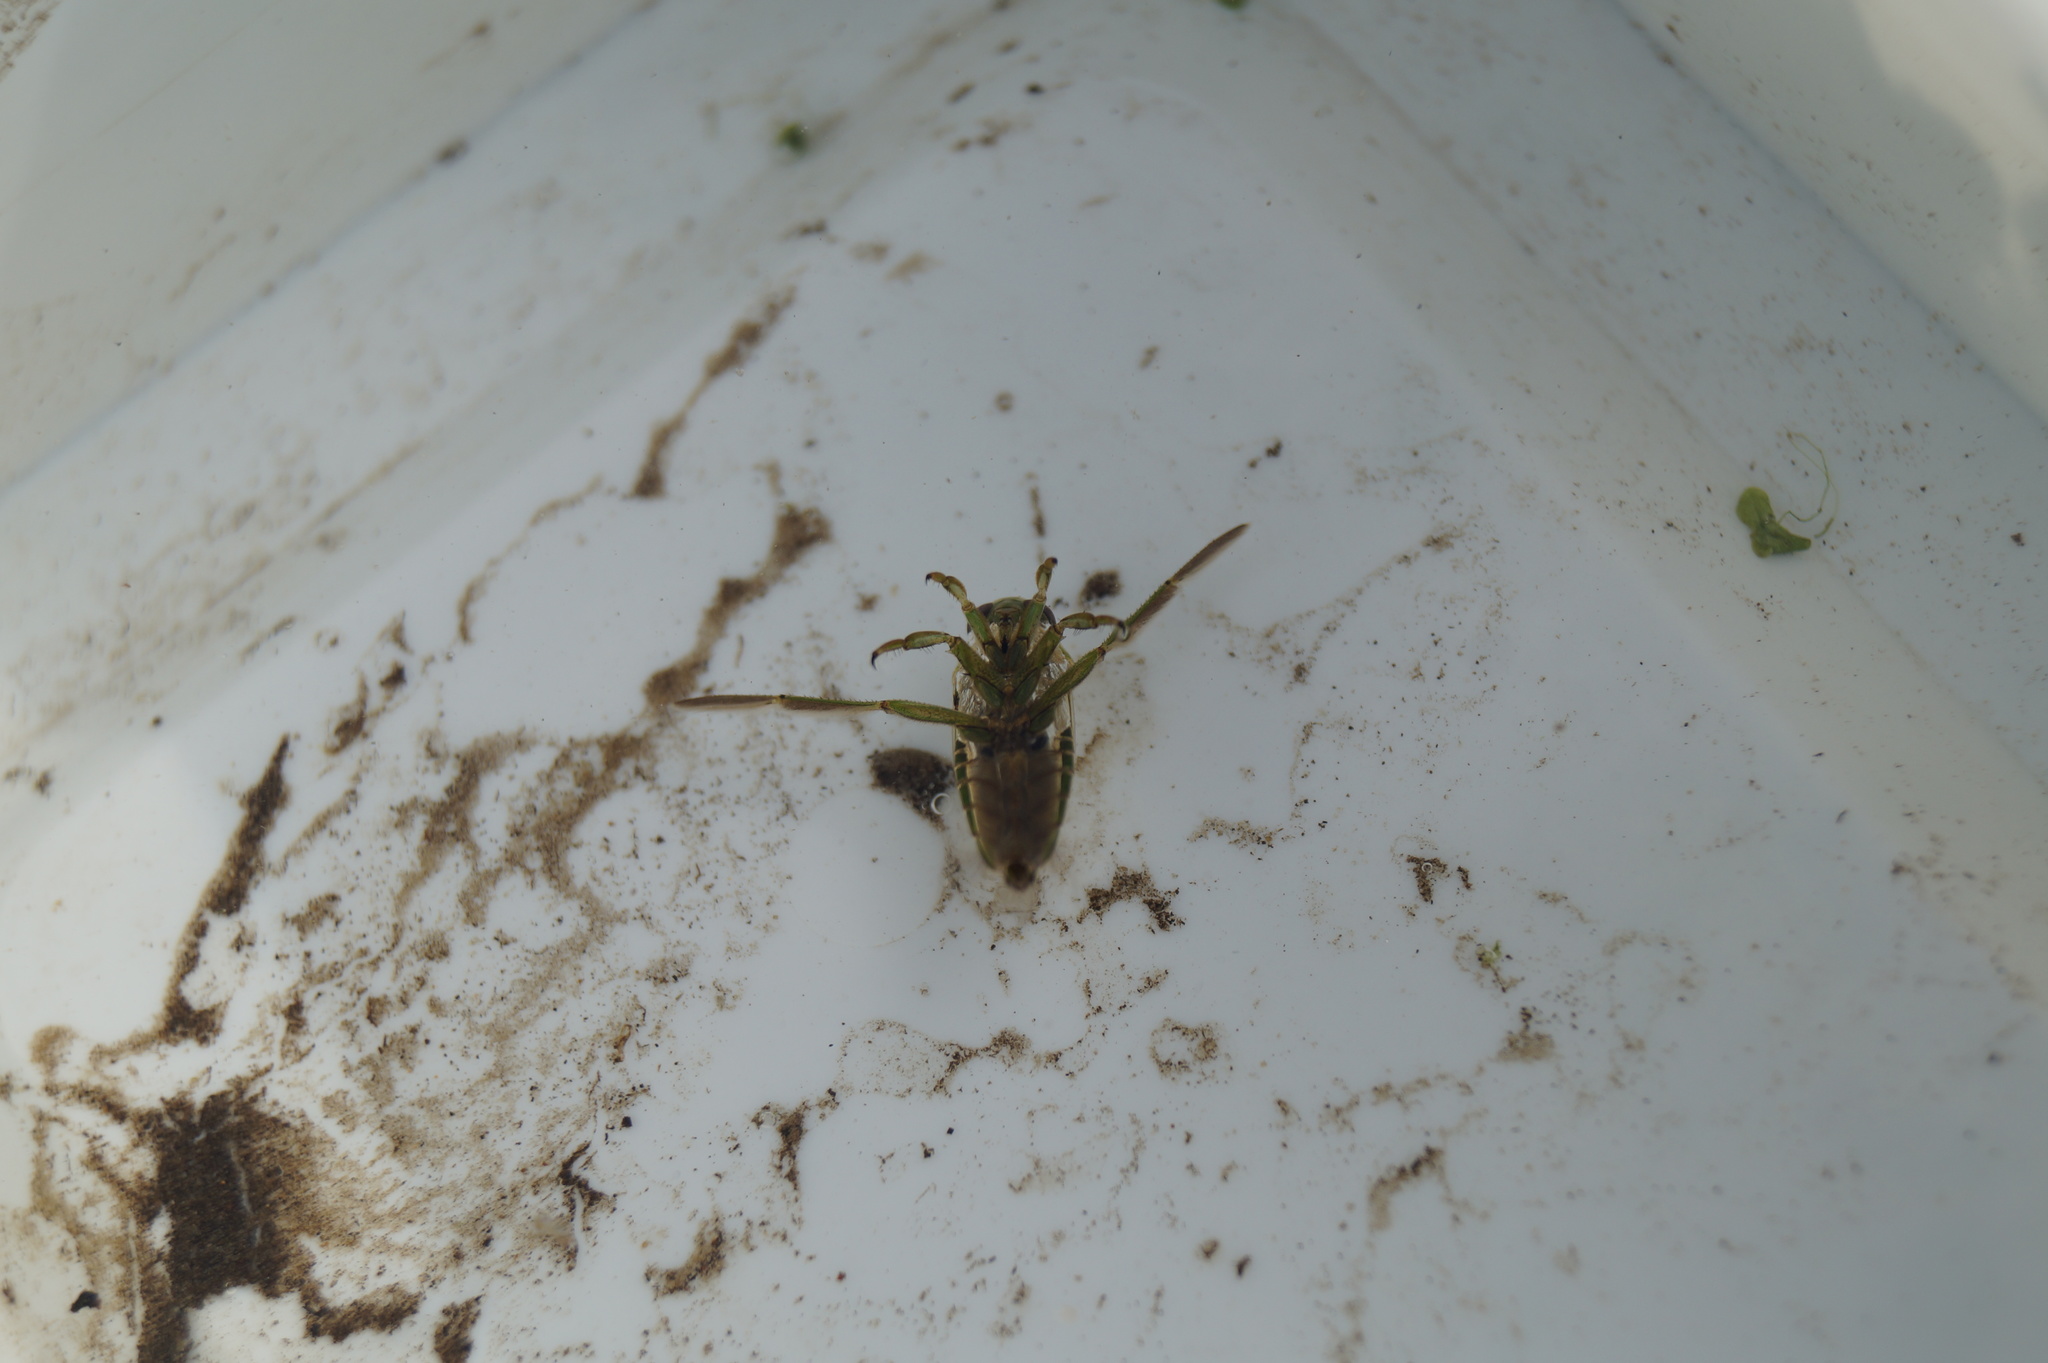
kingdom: Animalia
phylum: Arthropoda
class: Insecta
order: Hemiptera
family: Notonectidae
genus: Notonecta
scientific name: Notonecta viridis
